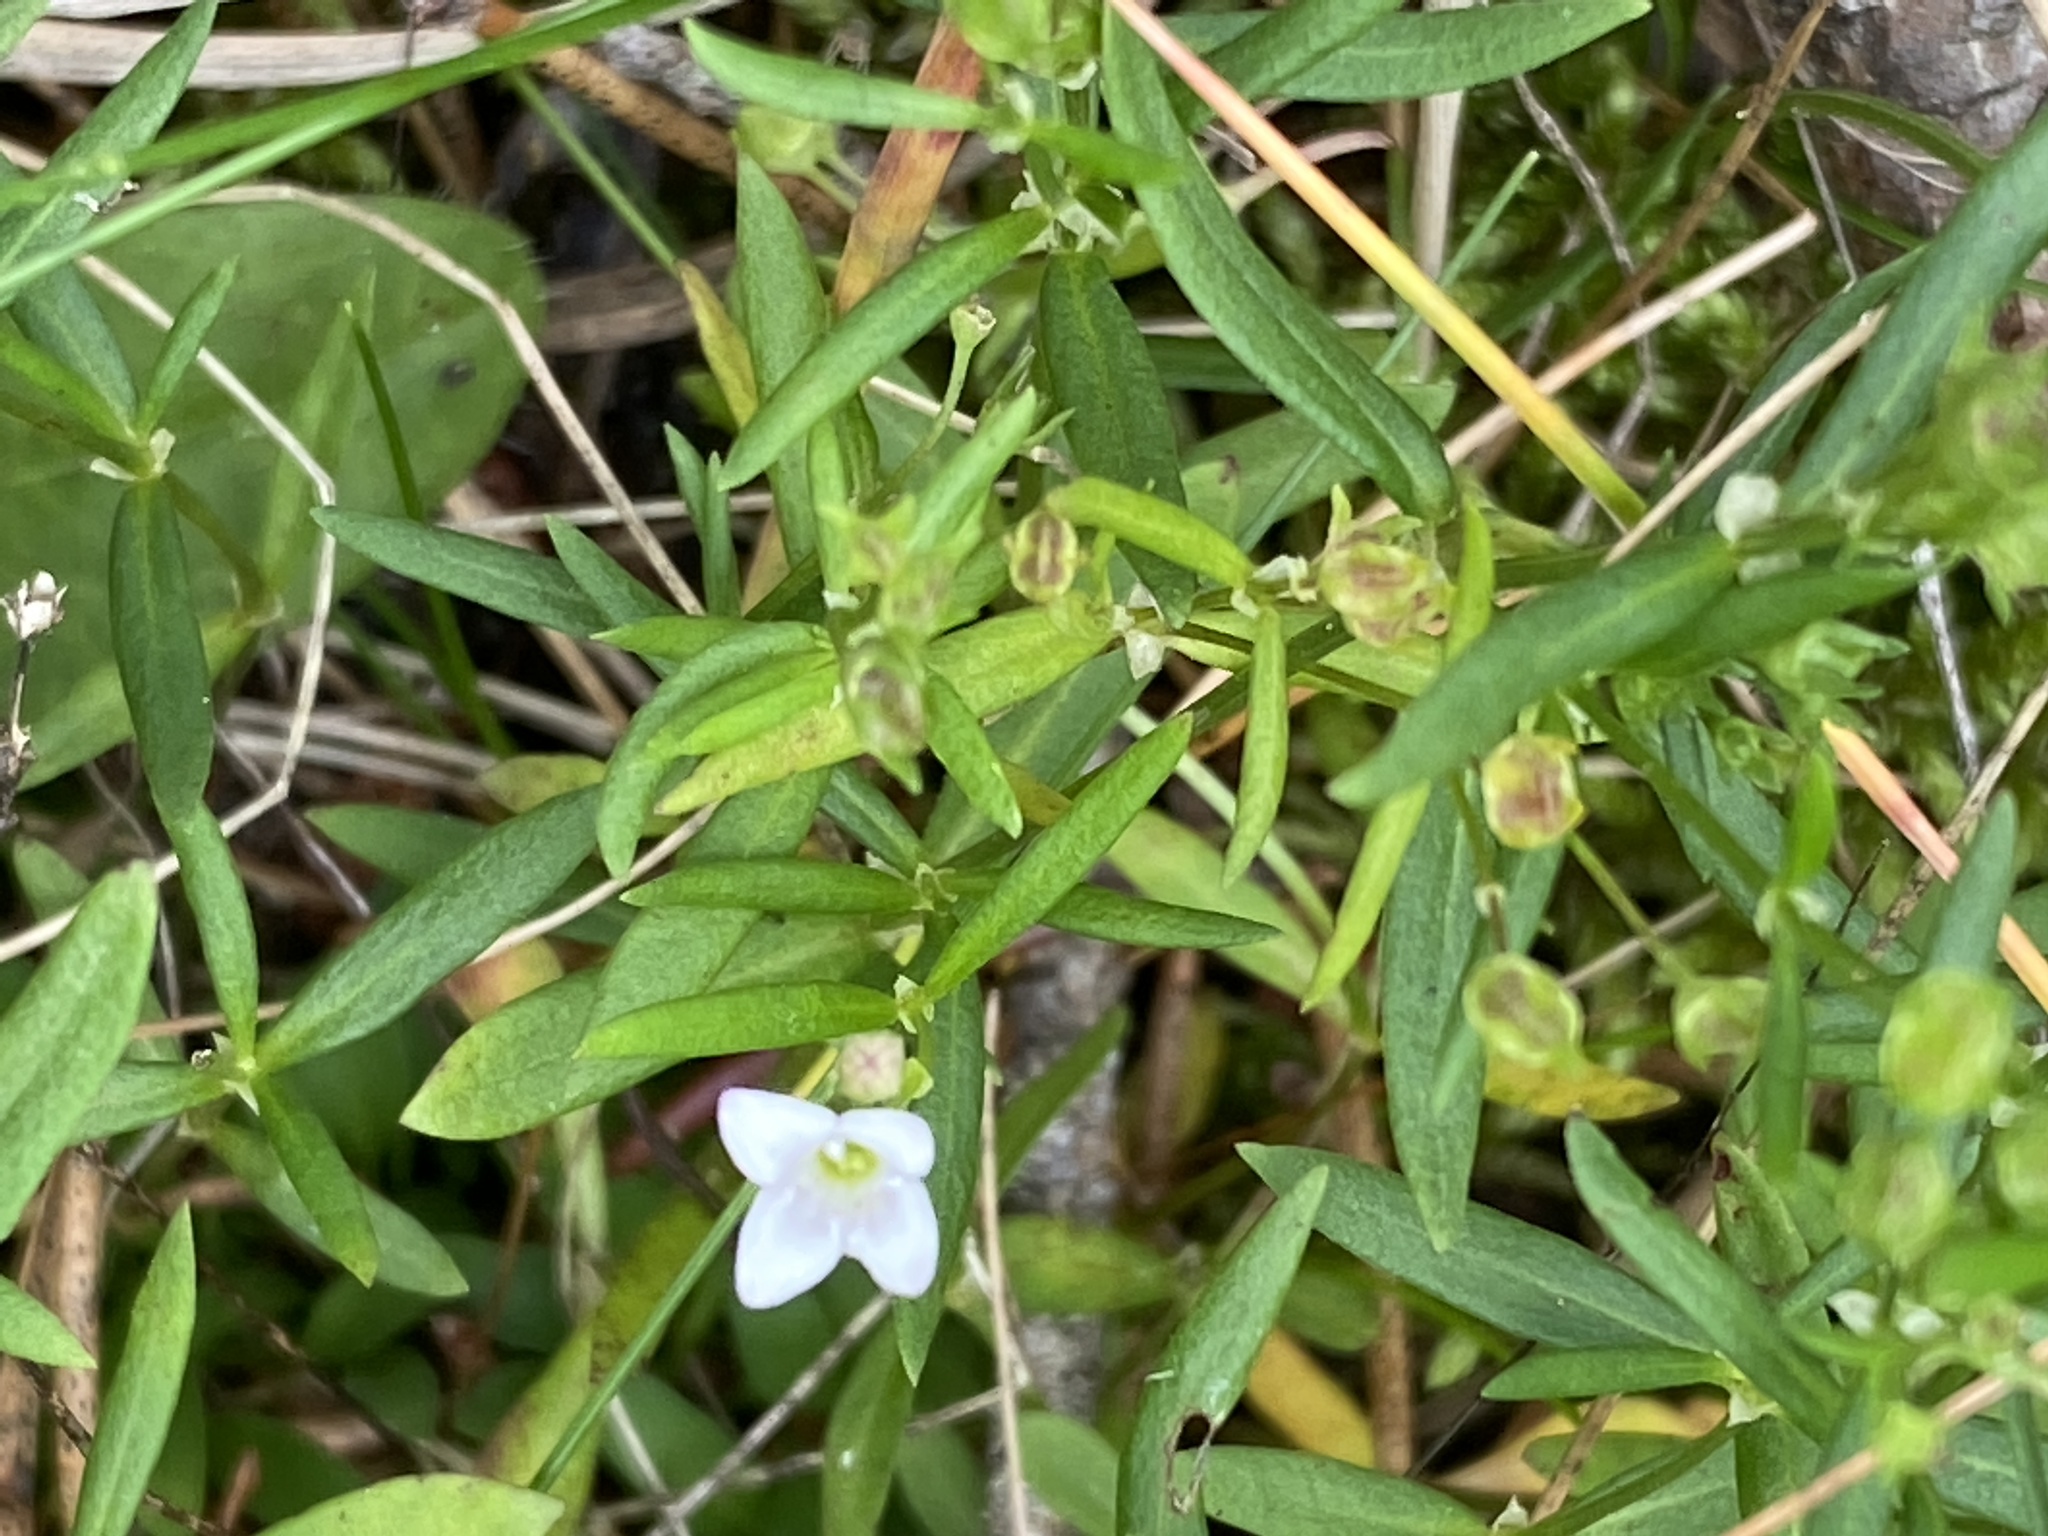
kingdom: Plantae
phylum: Tracheophyta
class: Magnoliopsida
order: Gentianales
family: Rubiaceae
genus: Houstonia
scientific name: Houstonia longifolia
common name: Long-leaved bluets
